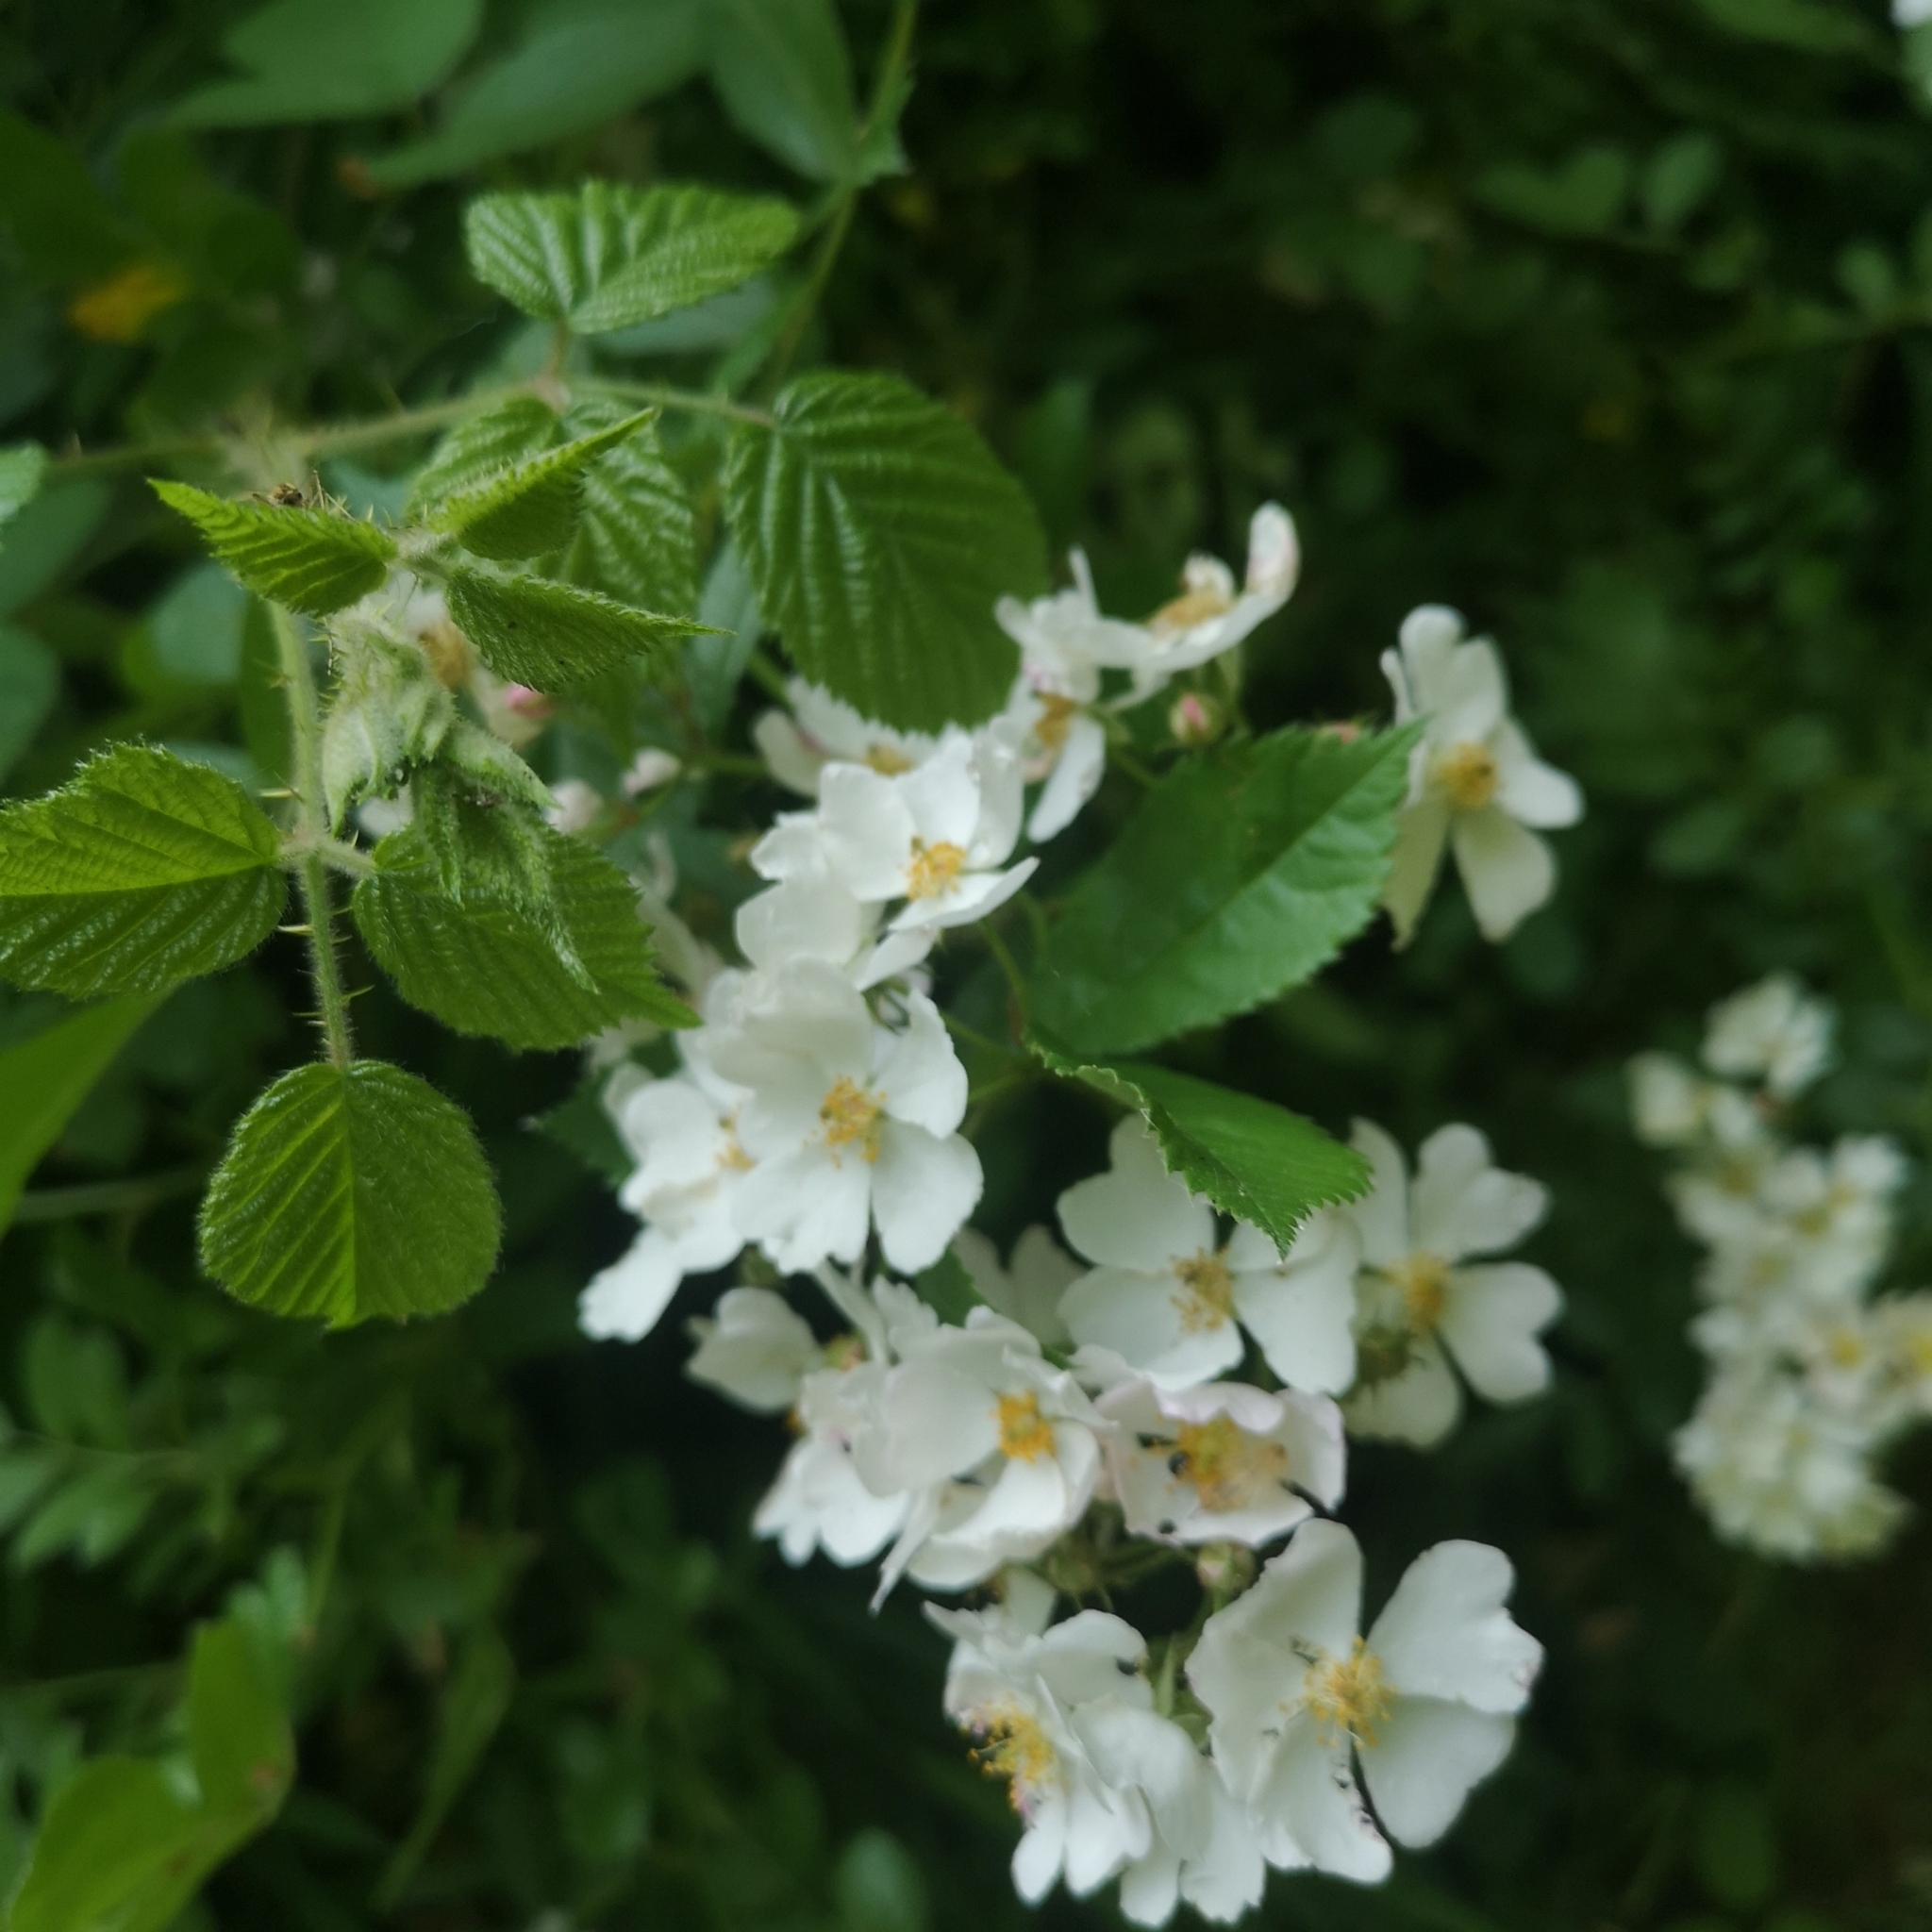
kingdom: Plantae
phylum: Tracheophyta
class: Magnoliopsida
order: Rosales
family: Rosaceae
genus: Rosa
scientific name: Rosa multiflora
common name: Multiflora rose
